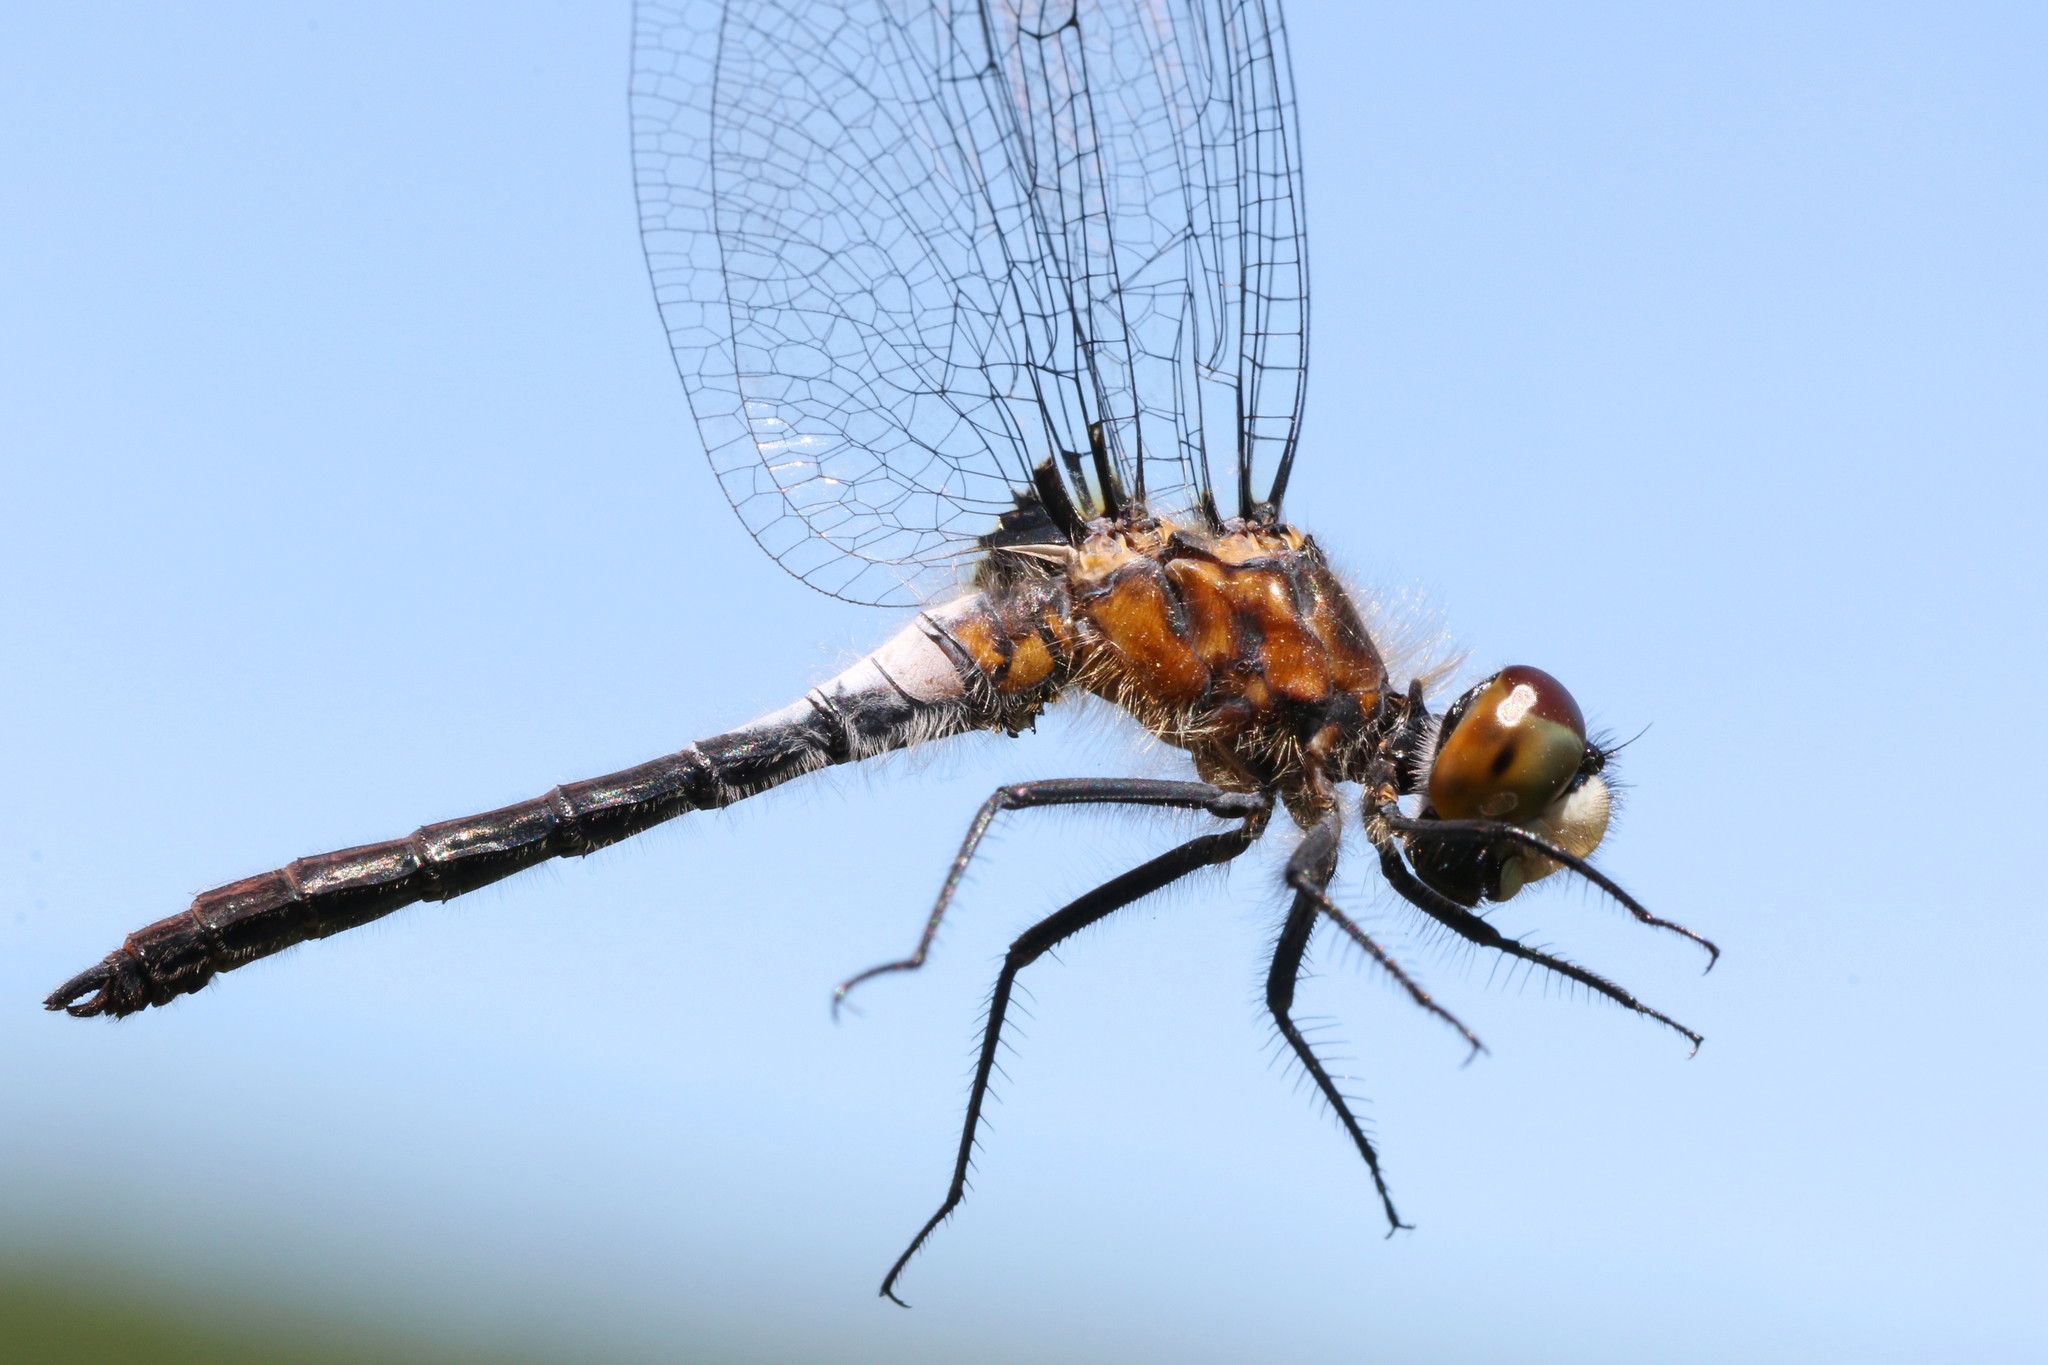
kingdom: Animalia
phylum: Arthropoda
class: Insecta
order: Odonata
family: Libellulidae
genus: Leucorrhinia
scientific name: Leucorrhinia frigida
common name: Frosted whiteface
